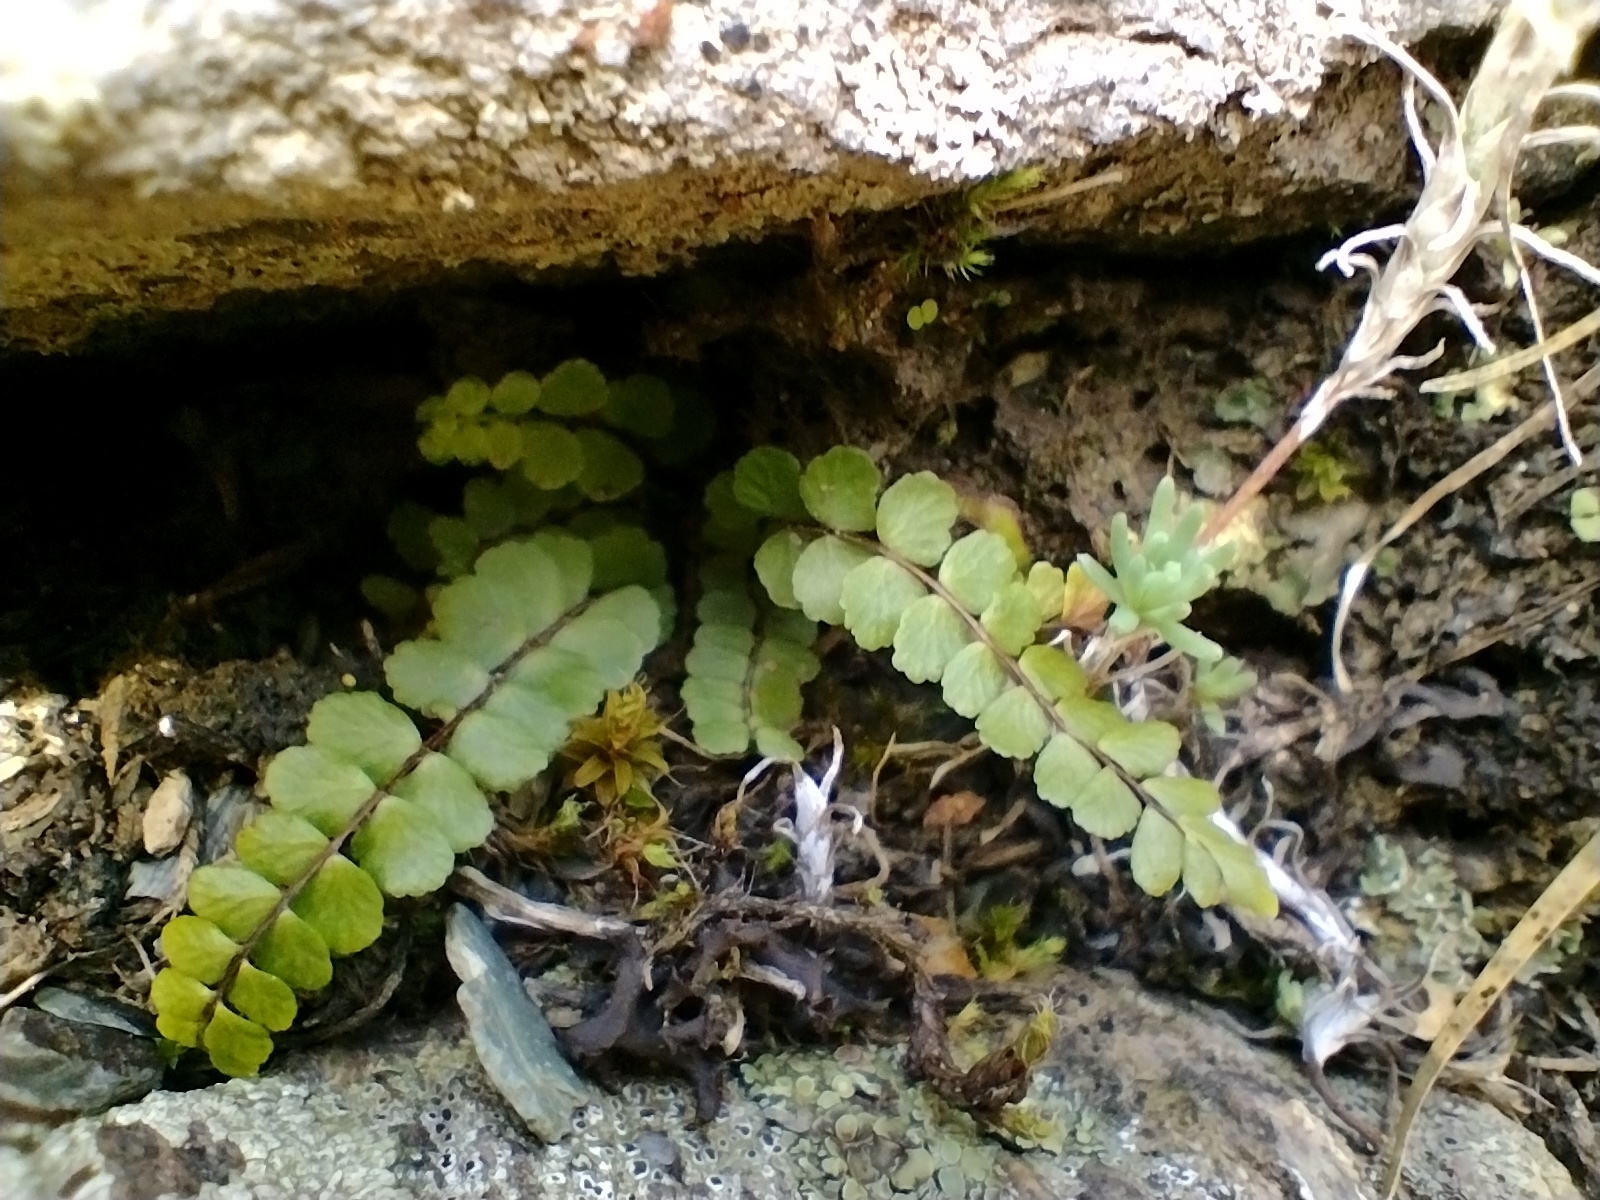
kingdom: Plantae
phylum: Tracheophyta
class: Polypodiopsida
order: Polypodiales
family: Aspleniaceae
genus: Asplenium
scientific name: Asplenium trichomanes
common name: Maidenhair spleenwort
